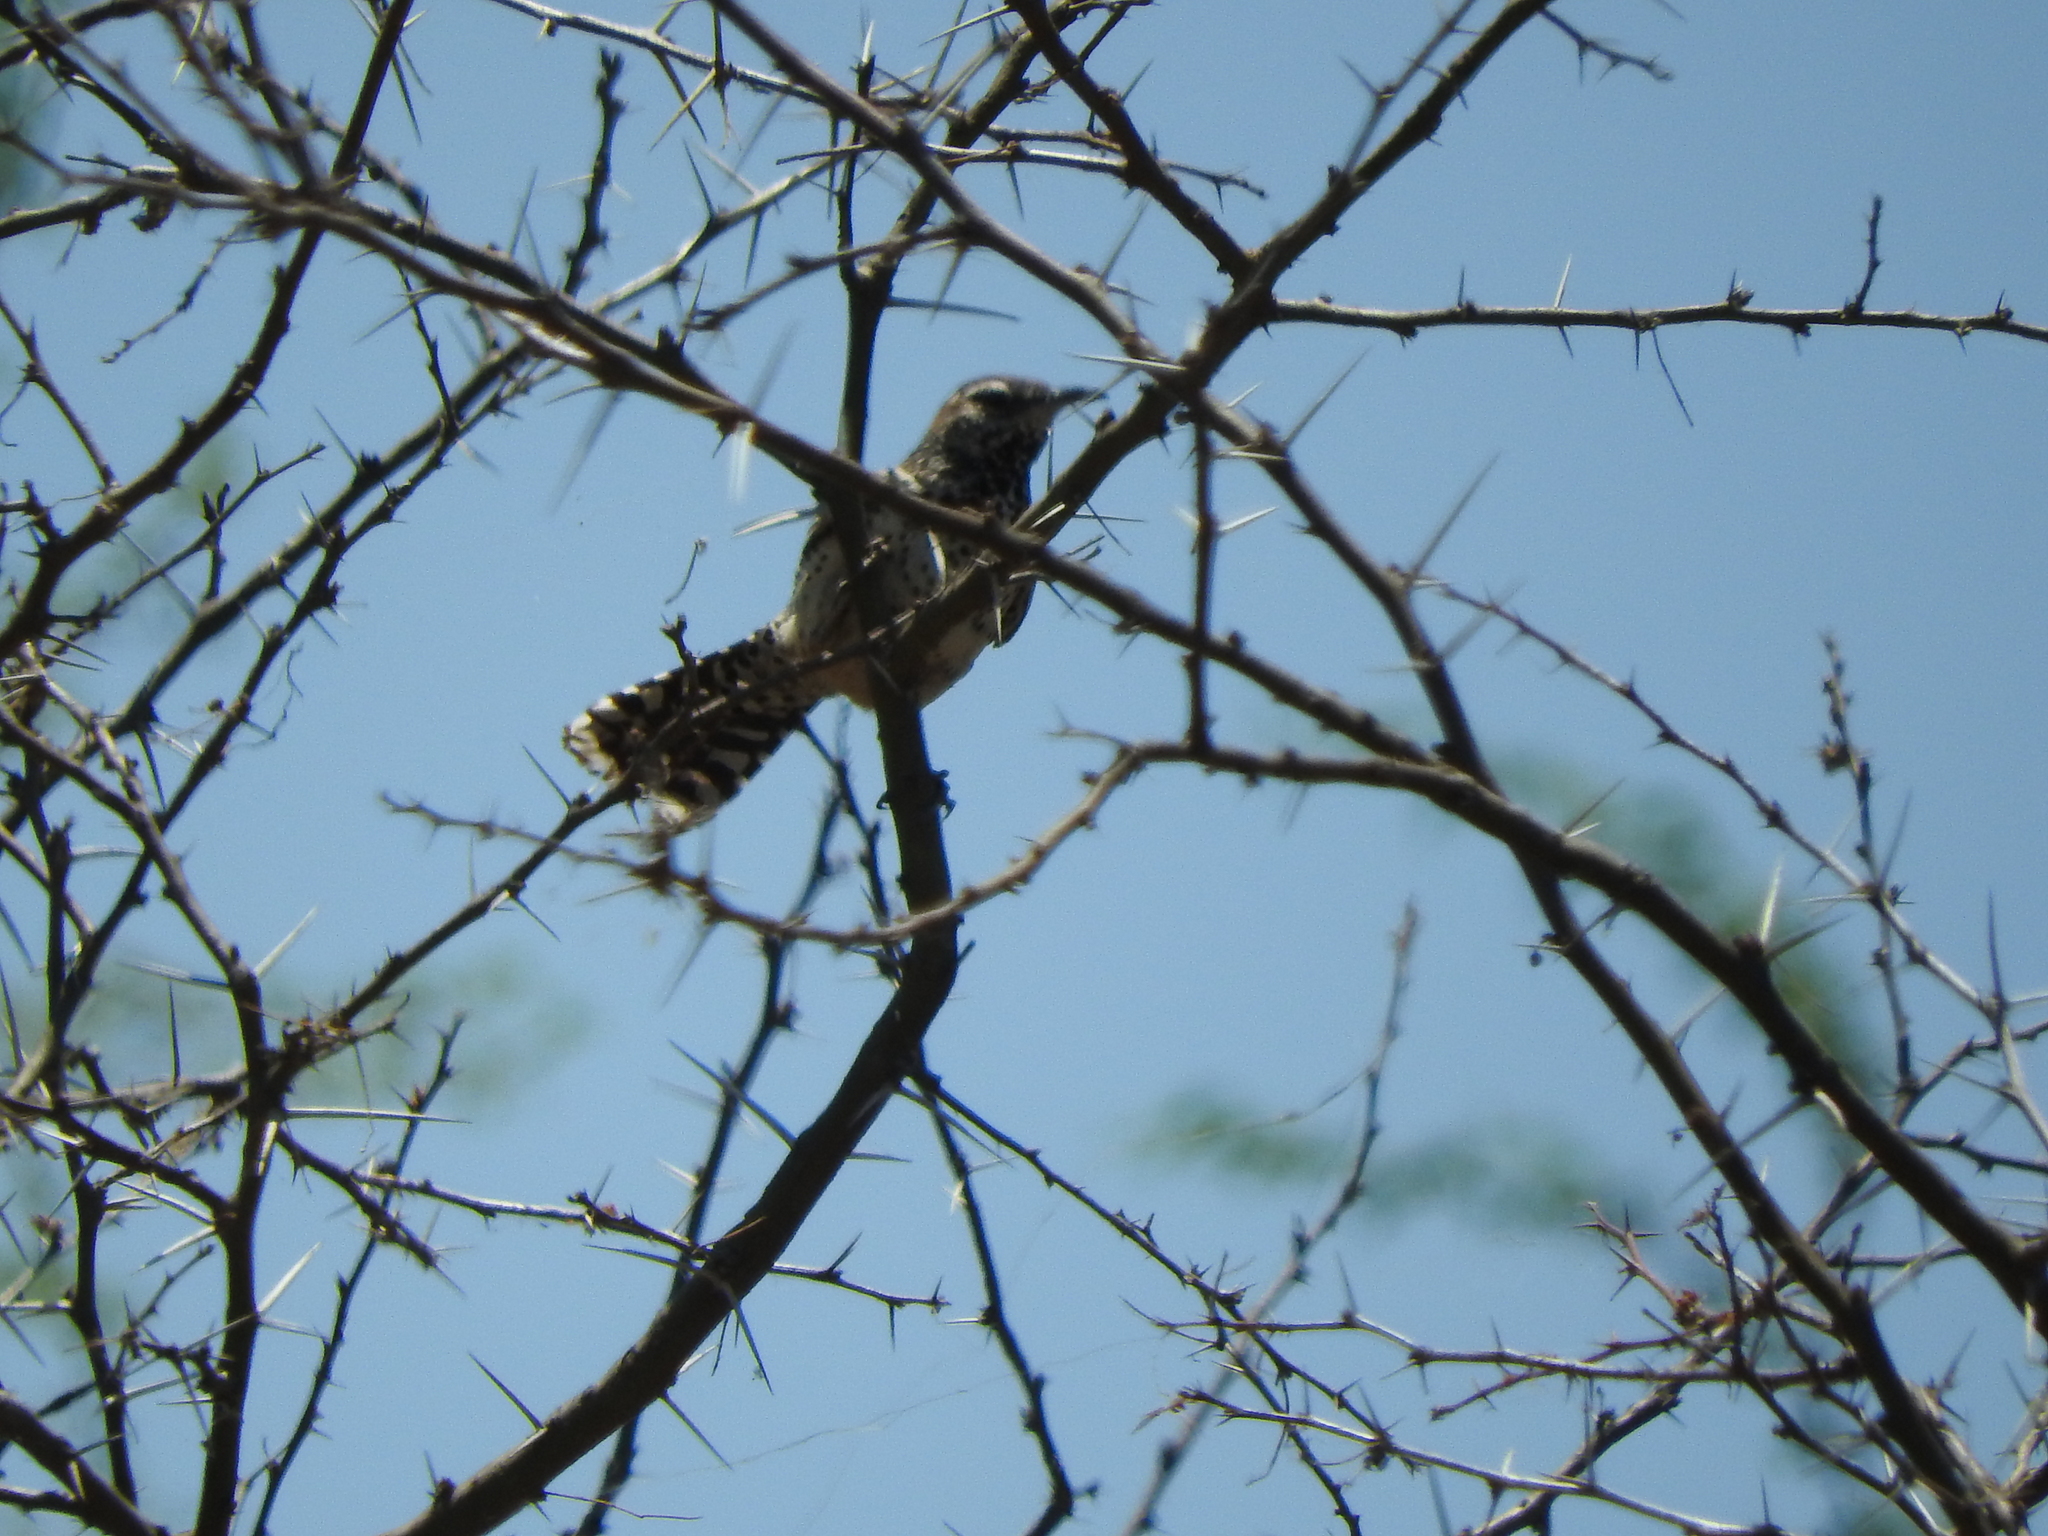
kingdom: Animalia
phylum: Chordata
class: Aves
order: Passeriformes
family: Troglodytidae
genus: Campylorhynchus
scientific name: Campylorhynchus brunneicapillus
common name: Cactus wren
